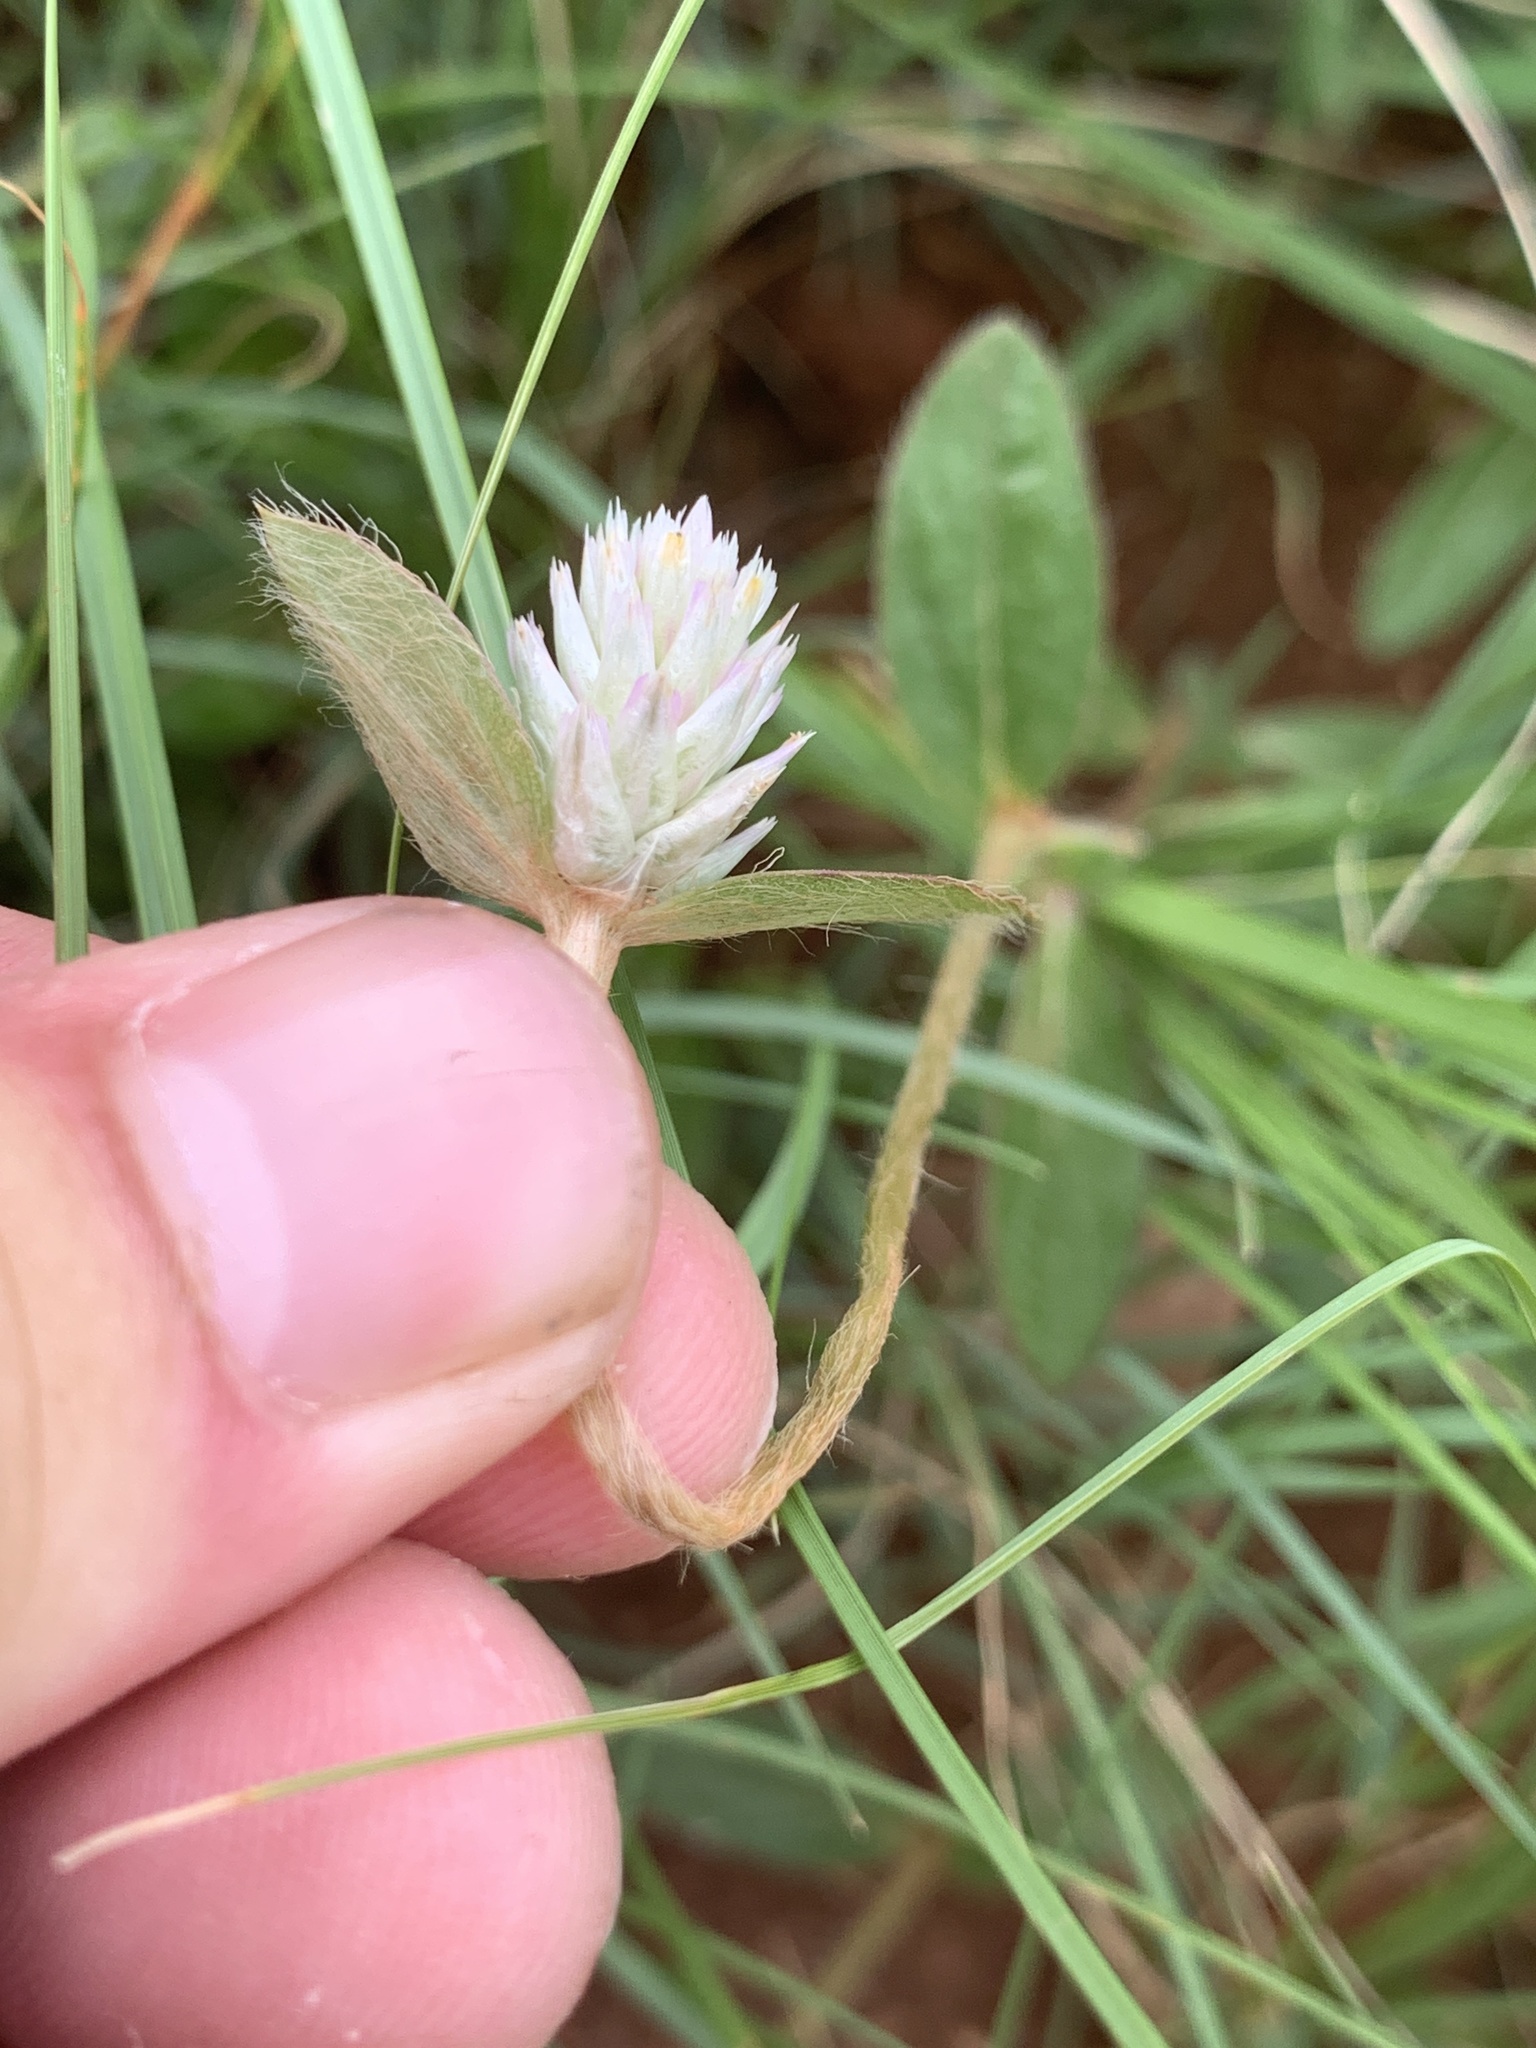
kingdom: Plantae
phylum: Tracheophyta
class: Magnoliopsida
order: Caryophyllales
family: Amaranthaceae
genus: Gomphrena
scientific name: Gomphrena celosioides
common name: Gomphrena-weed
